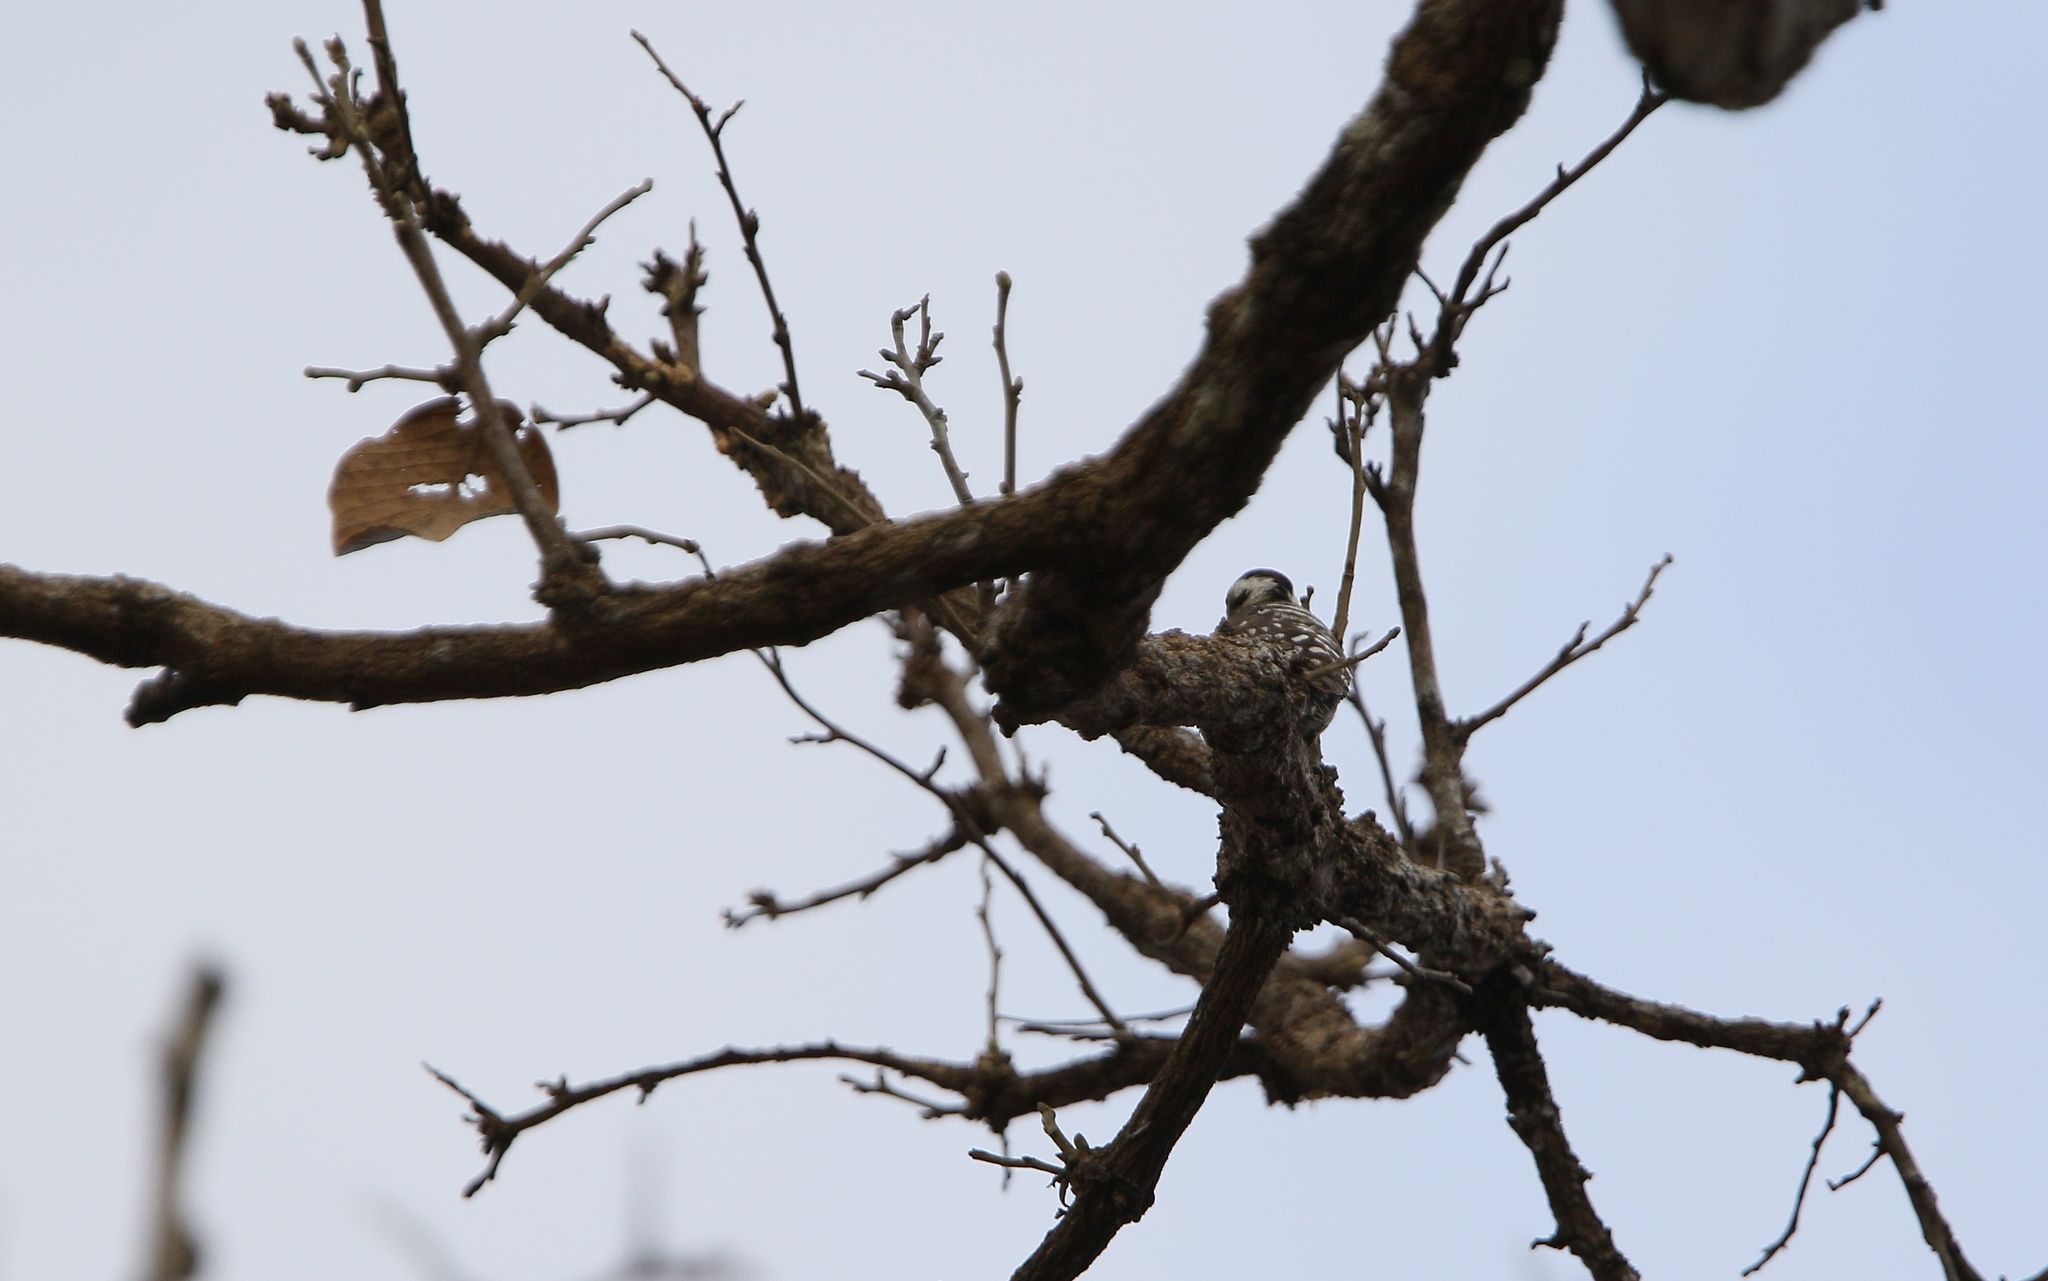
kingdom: Animalia
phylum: Chordata
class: Aves
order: Piciformes
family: Picidae
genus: Yungipicus
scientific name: Yungipicus canicapillus
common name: Grey-capped pygmy woodpecker
